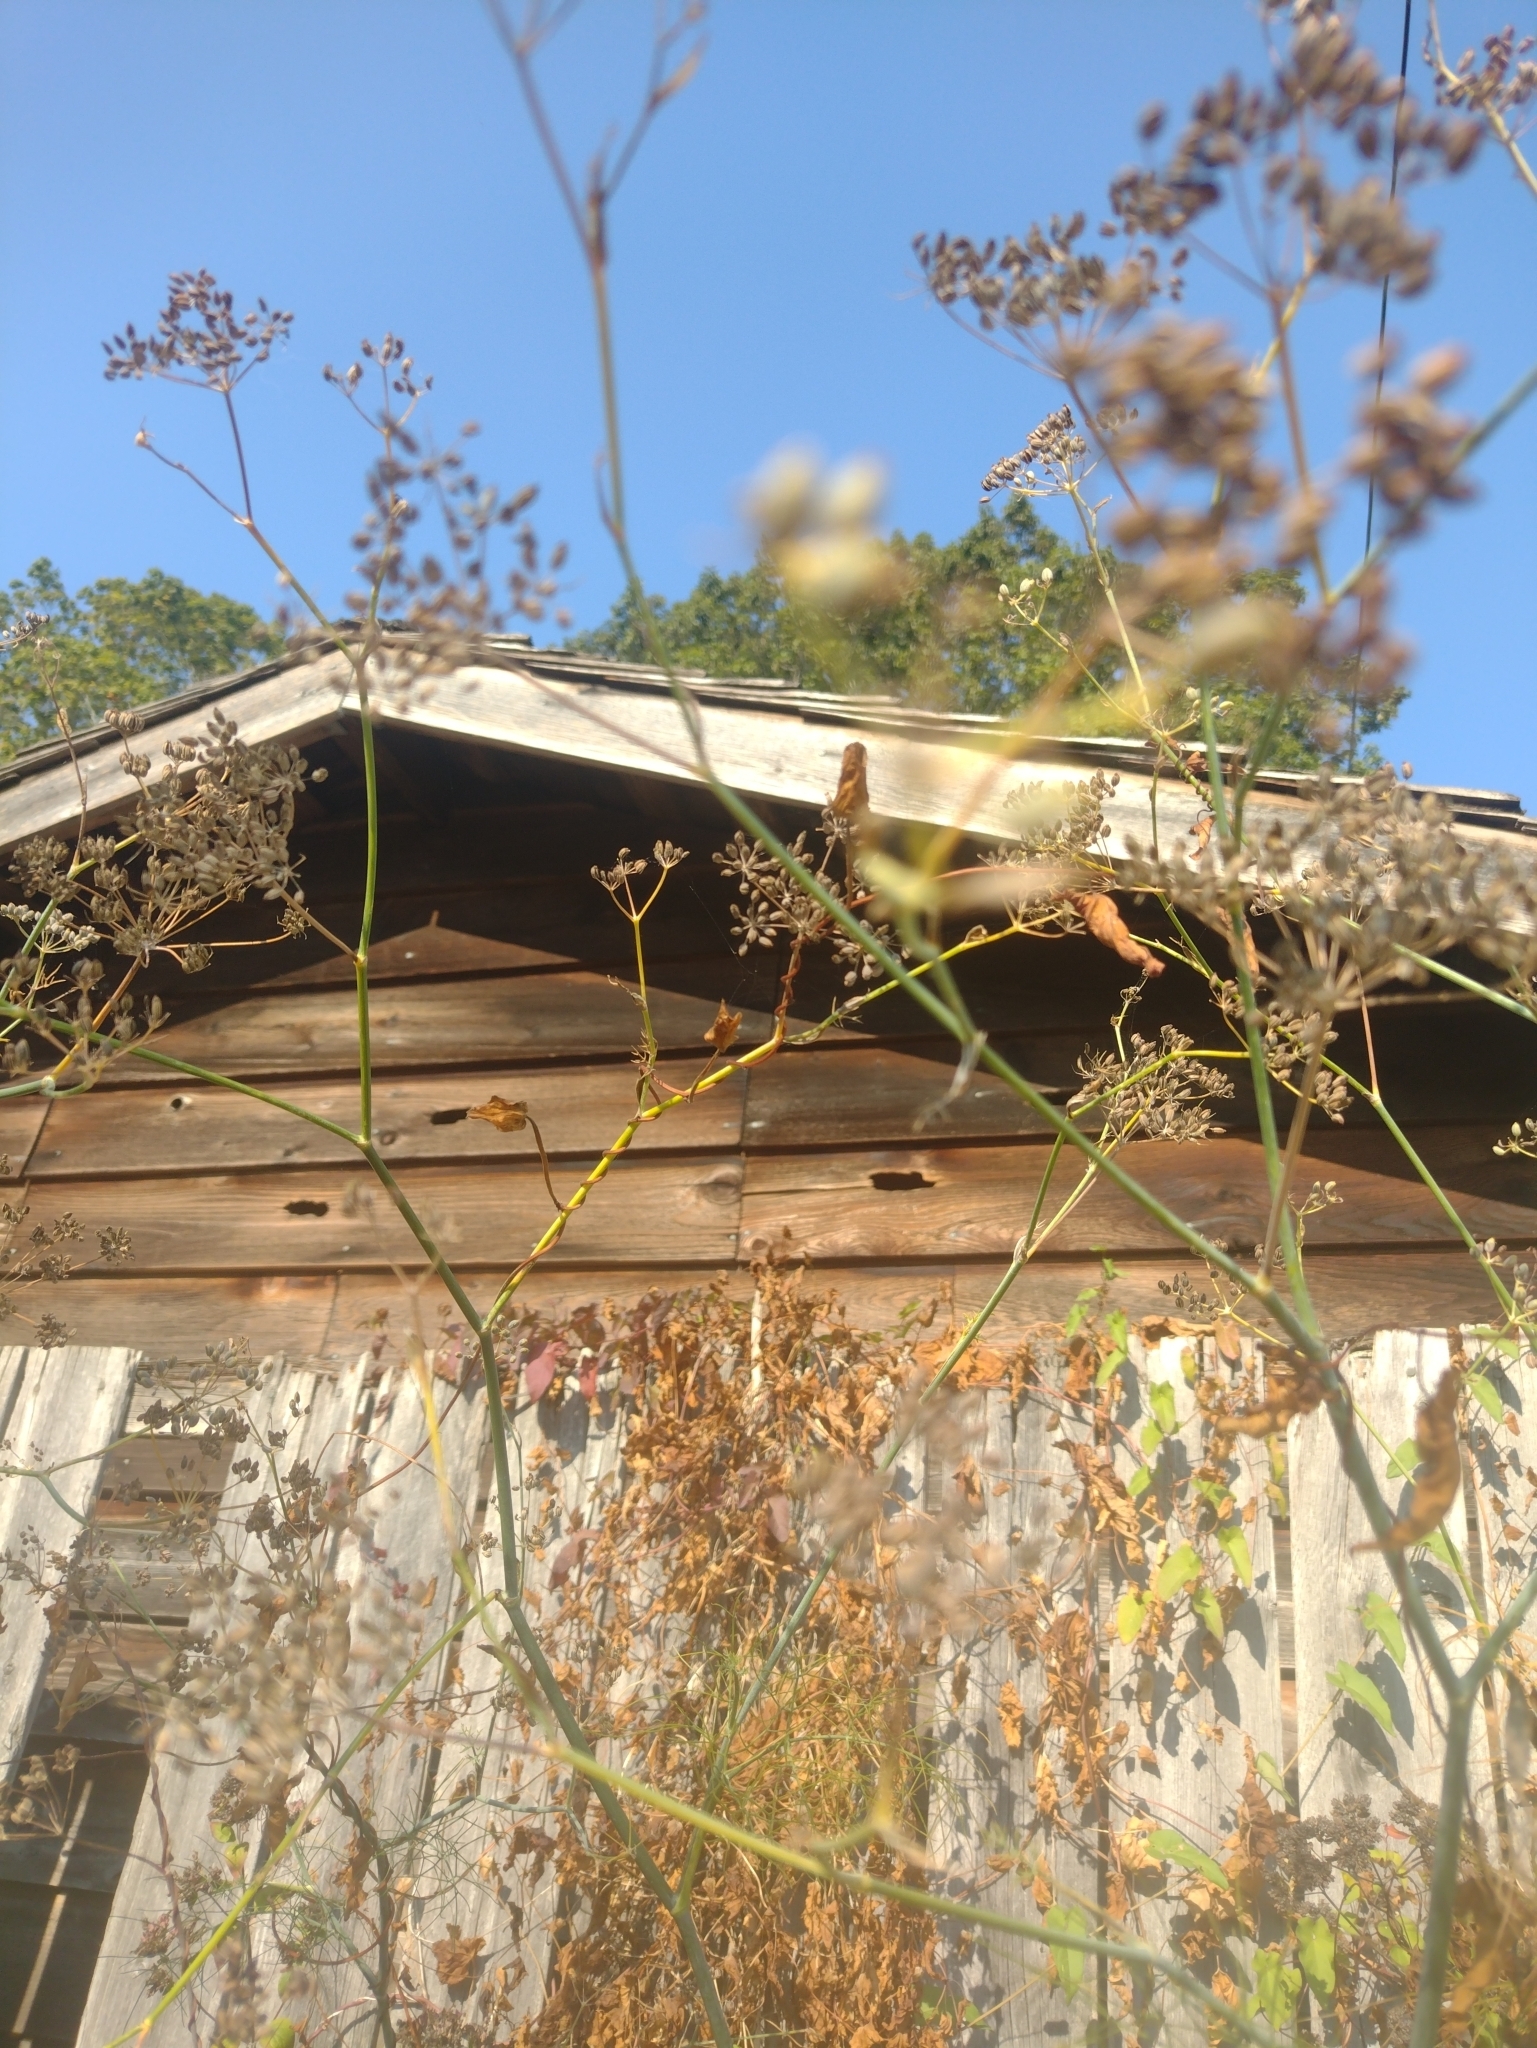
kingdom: Plantae
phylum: Tracheophyta
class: Magnoliopsida
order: Apiales
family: Apiaceae
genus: Foeniculum
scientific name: Foeniculum vulgare
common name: Fennel
